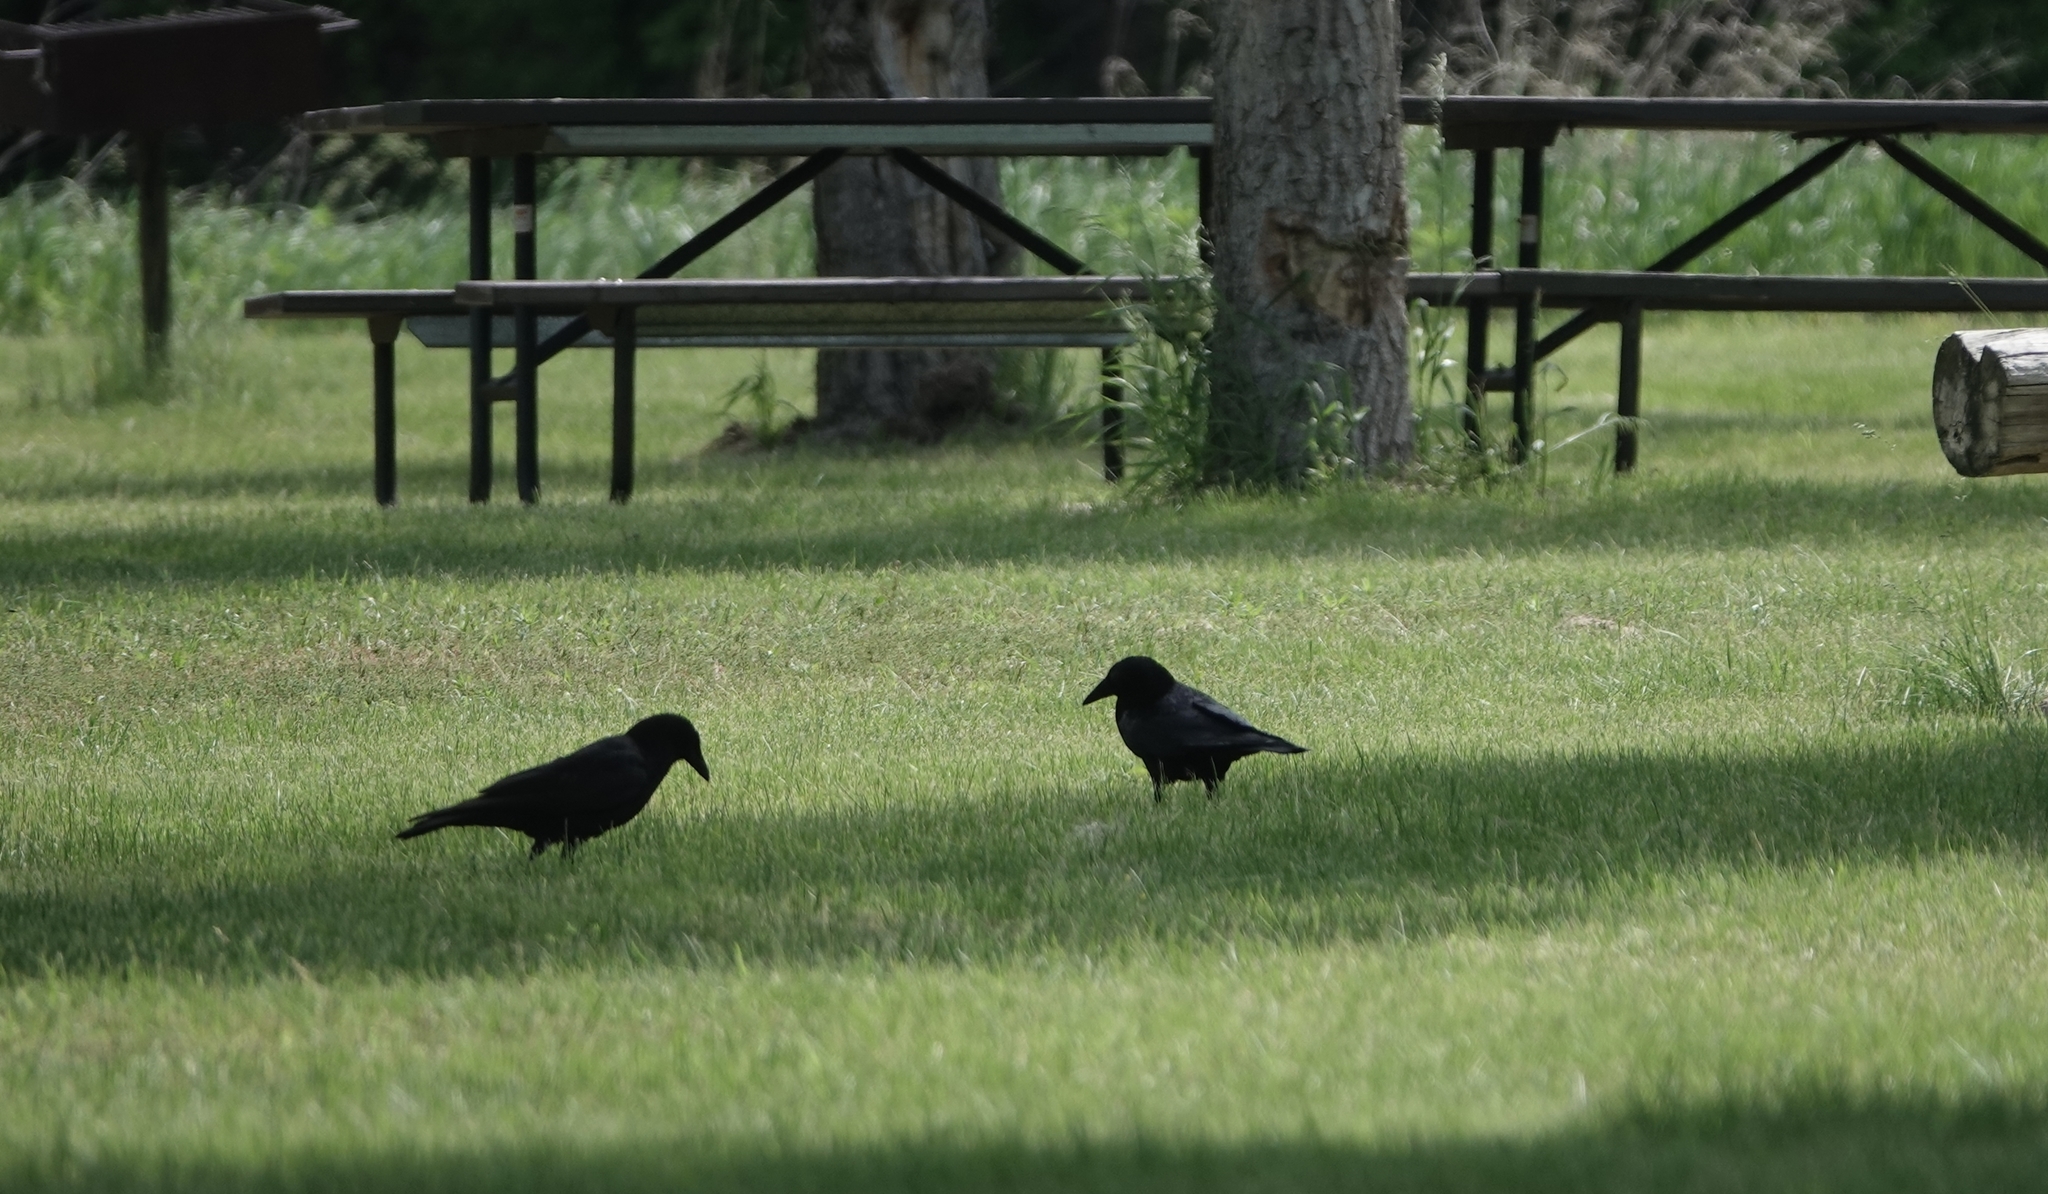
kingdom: Animalia
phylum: Chordata
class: Aves
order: Passeriformes
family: Corvidae
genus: Corvus
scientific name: Corvus brachyrhynchos
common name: American crow
